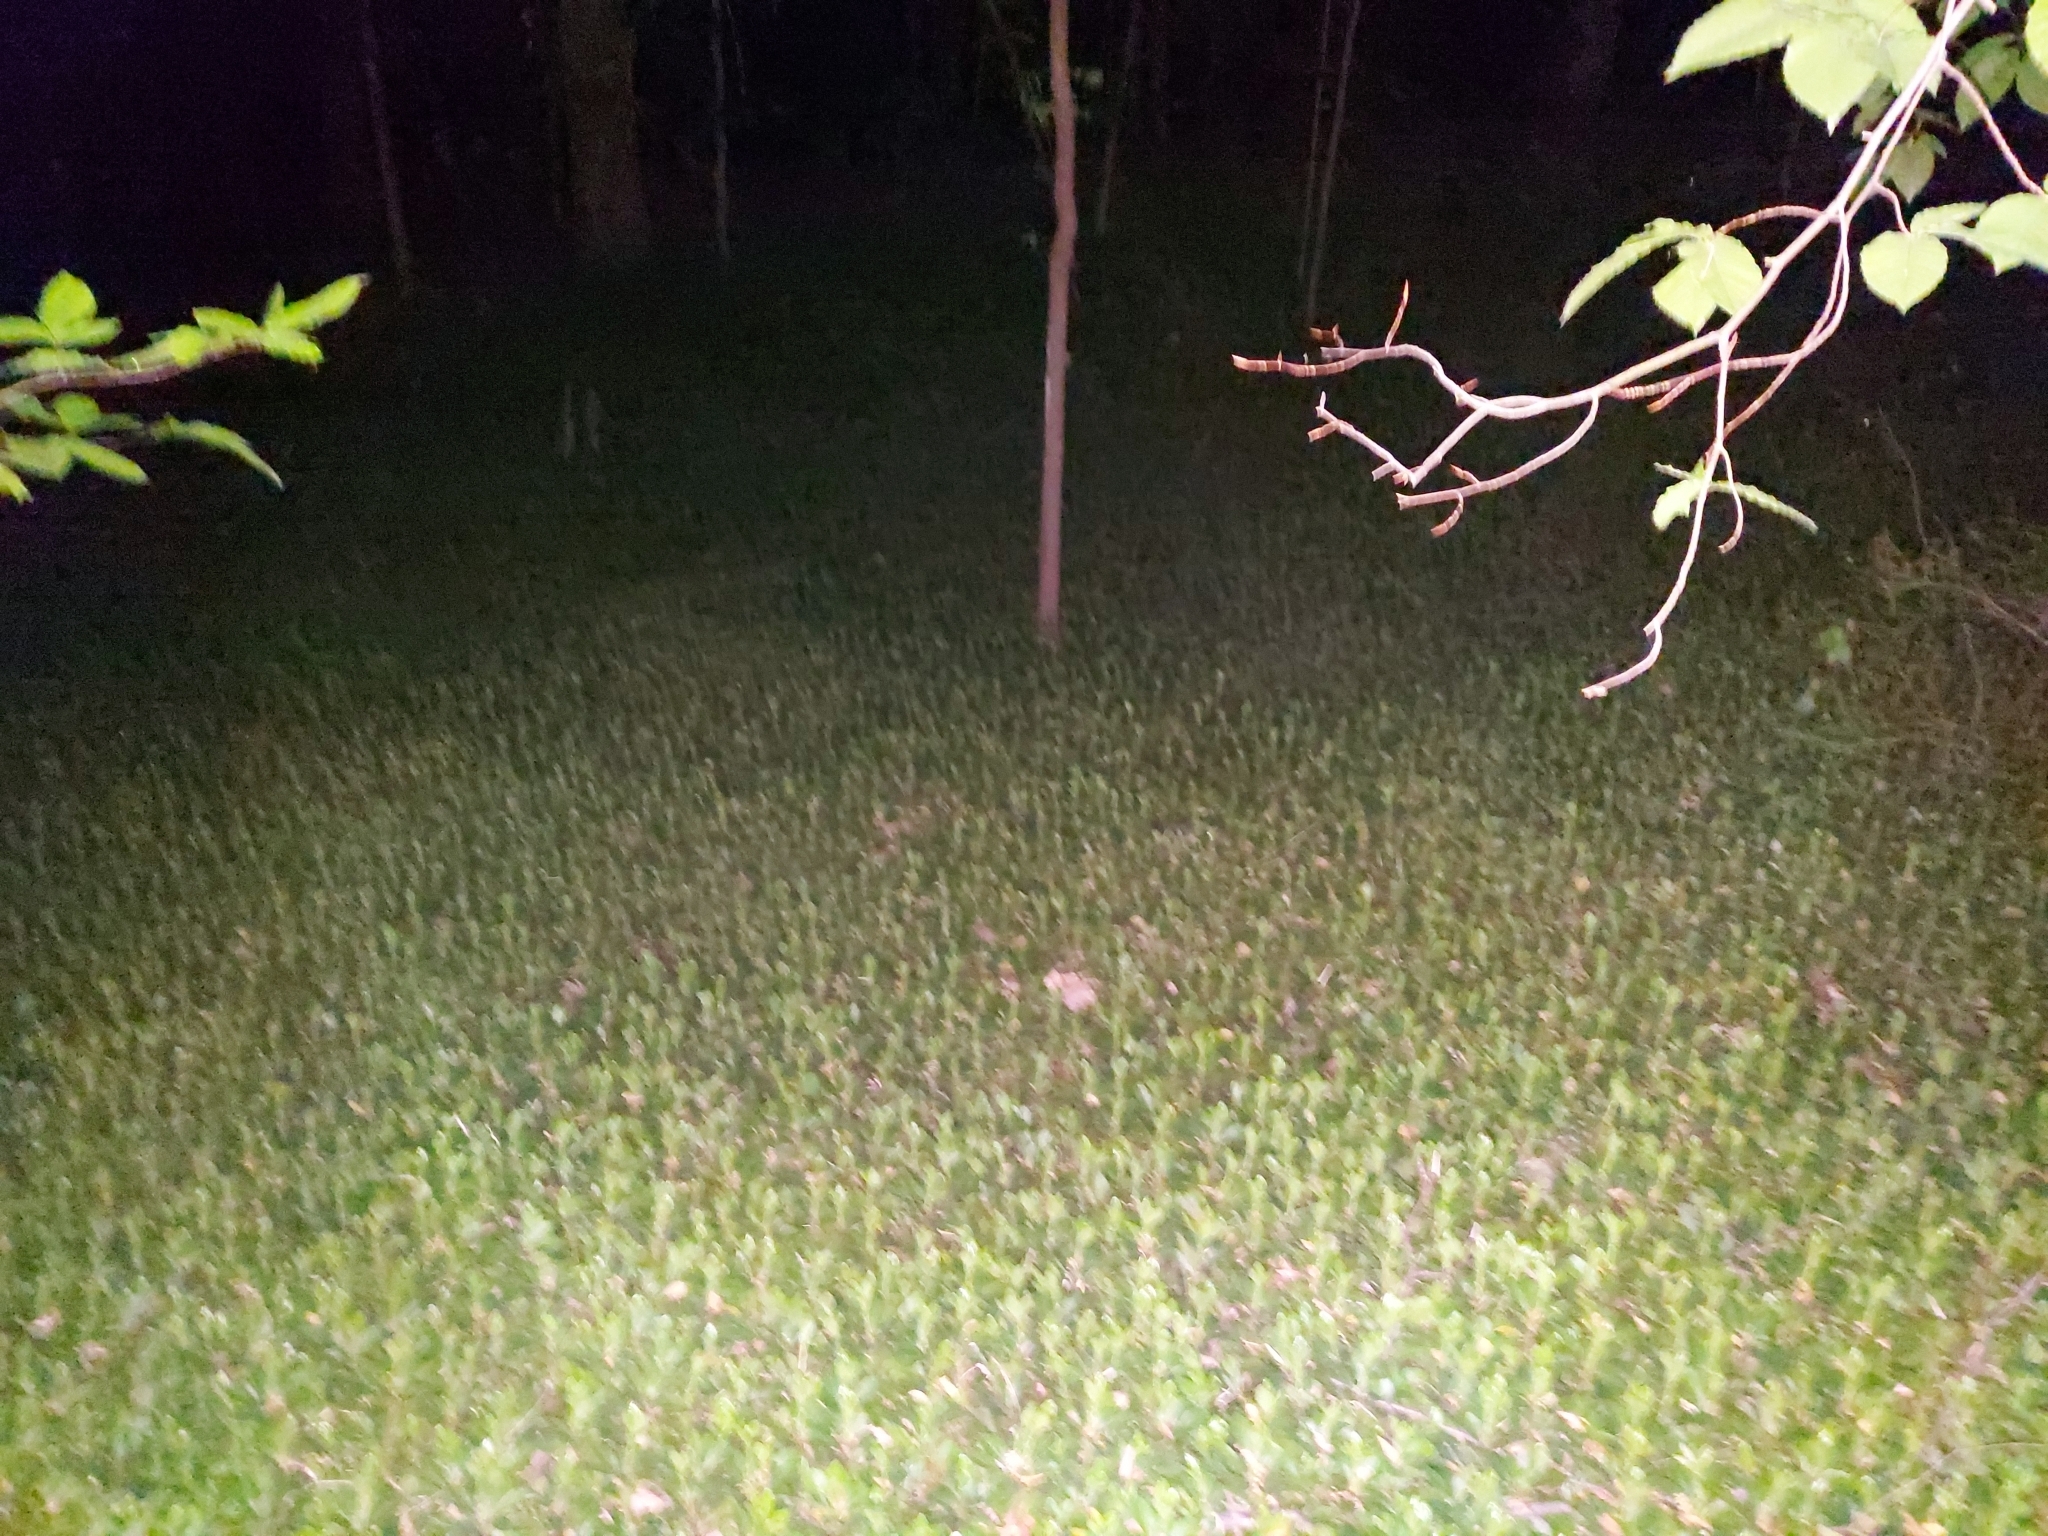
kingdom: Plantae
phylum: Tracheophyta
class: Magnoliopsida
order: Buxales
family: Buxaceae
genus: Pachysandra
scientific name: Pachysandra terminalis
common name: Japanese pachysandra
